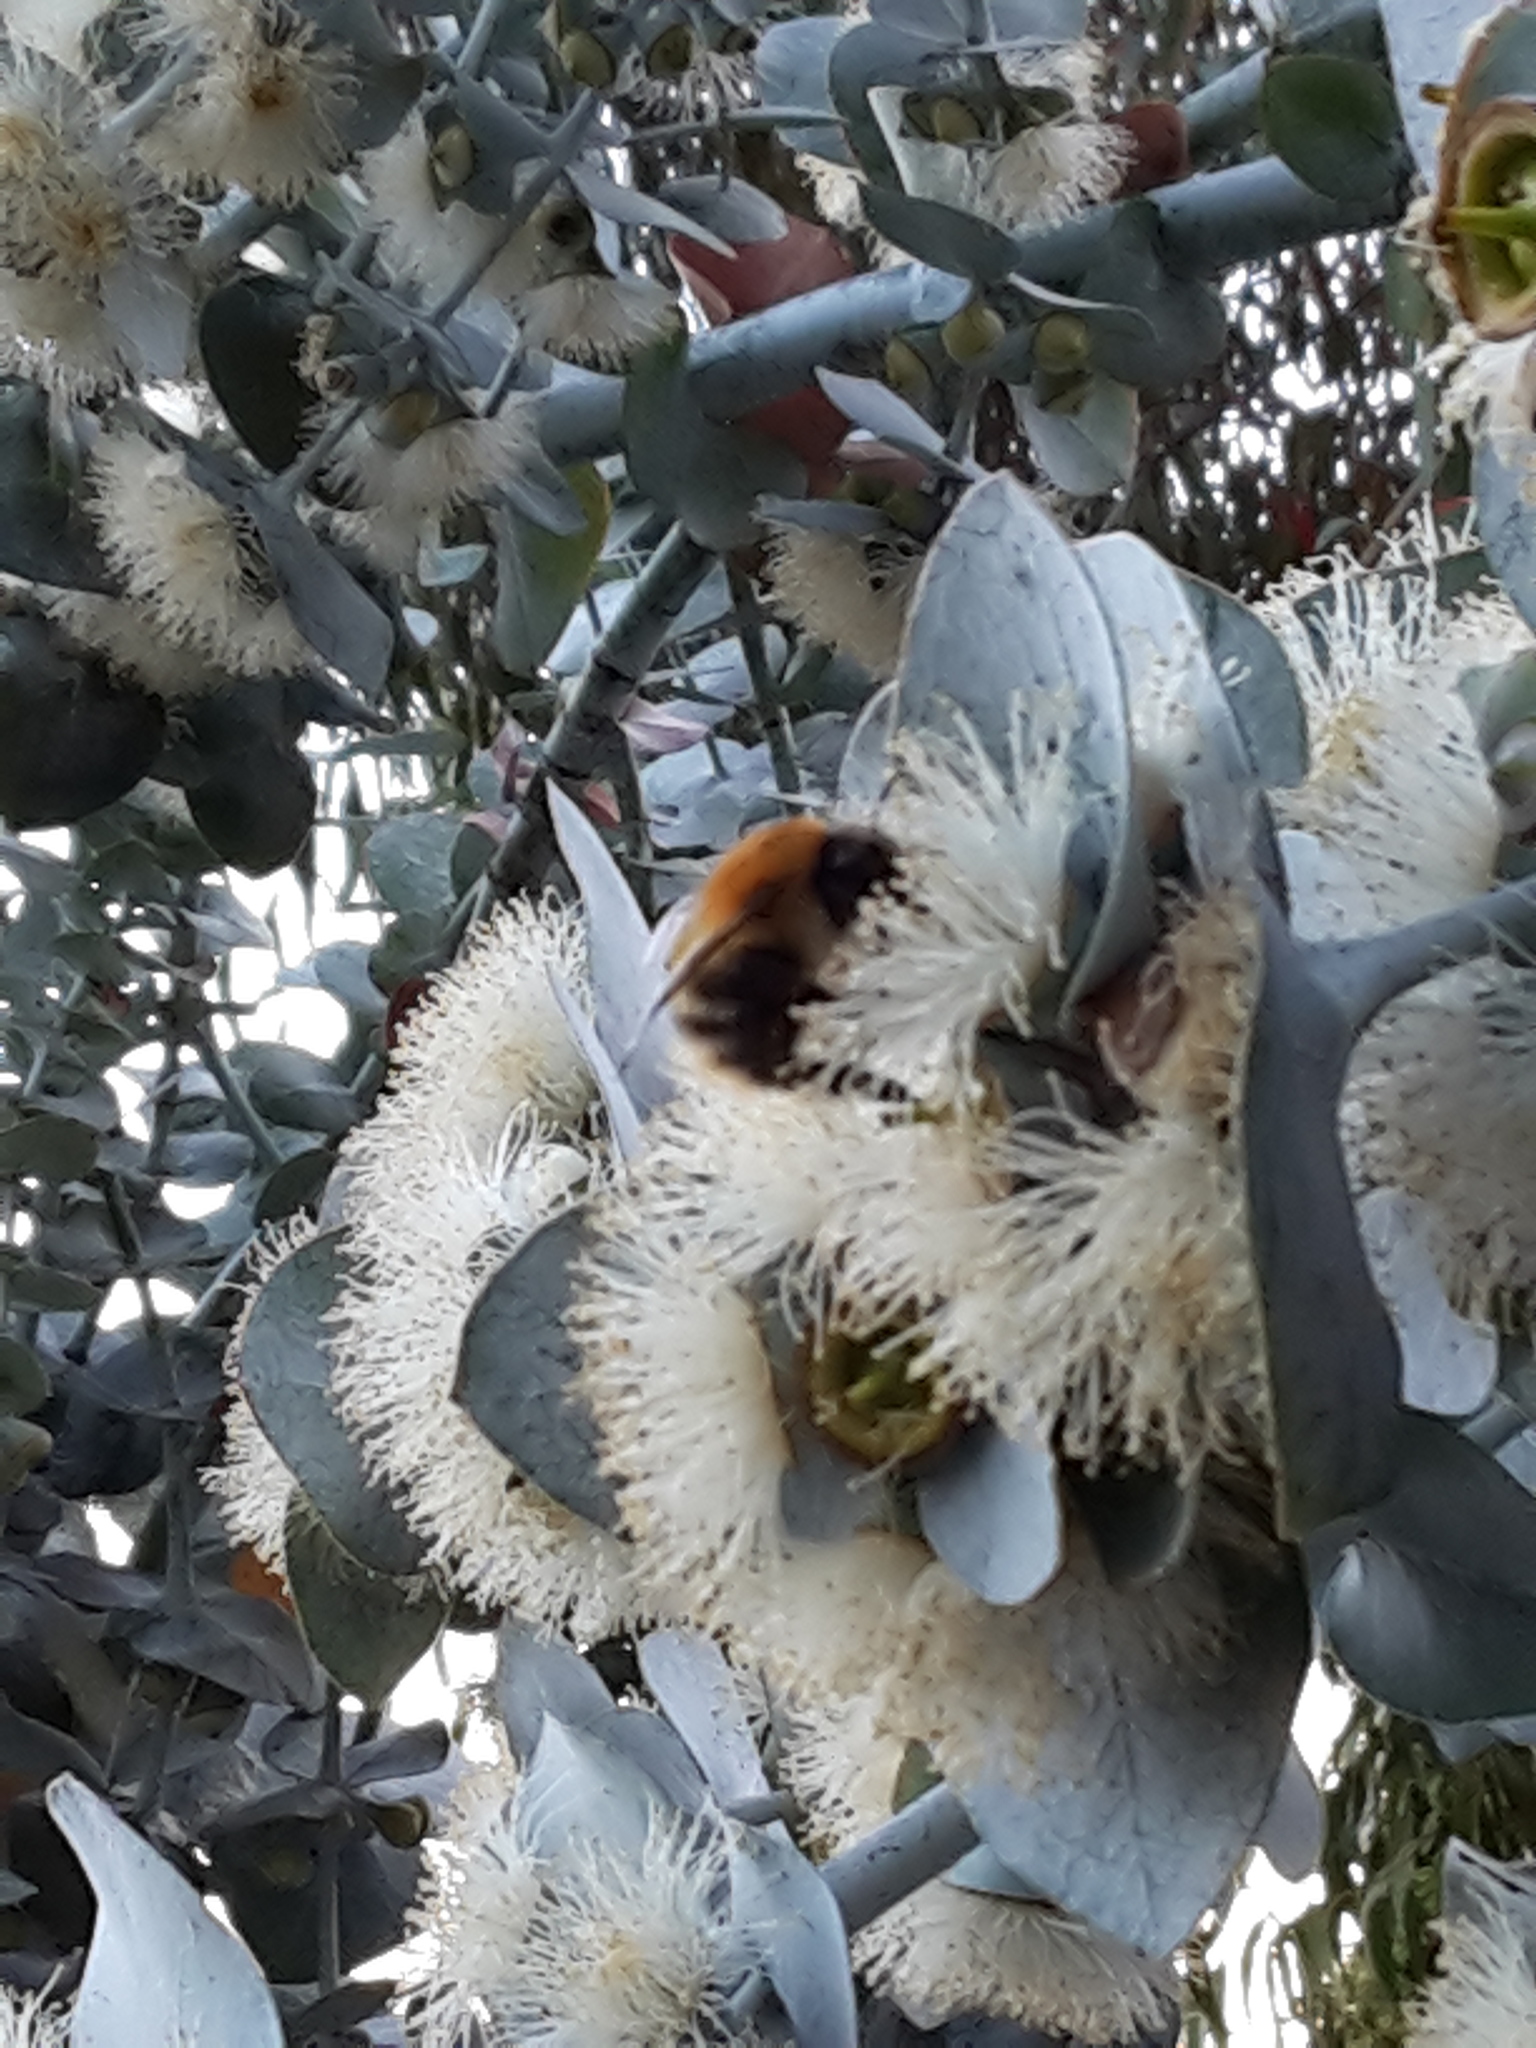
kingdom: Animalia
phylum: Arthropoda
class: Insecta
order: Hymenoptera
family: Apidae
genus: Bombus
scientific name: Bombus pascuorum
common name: Common carder bee
